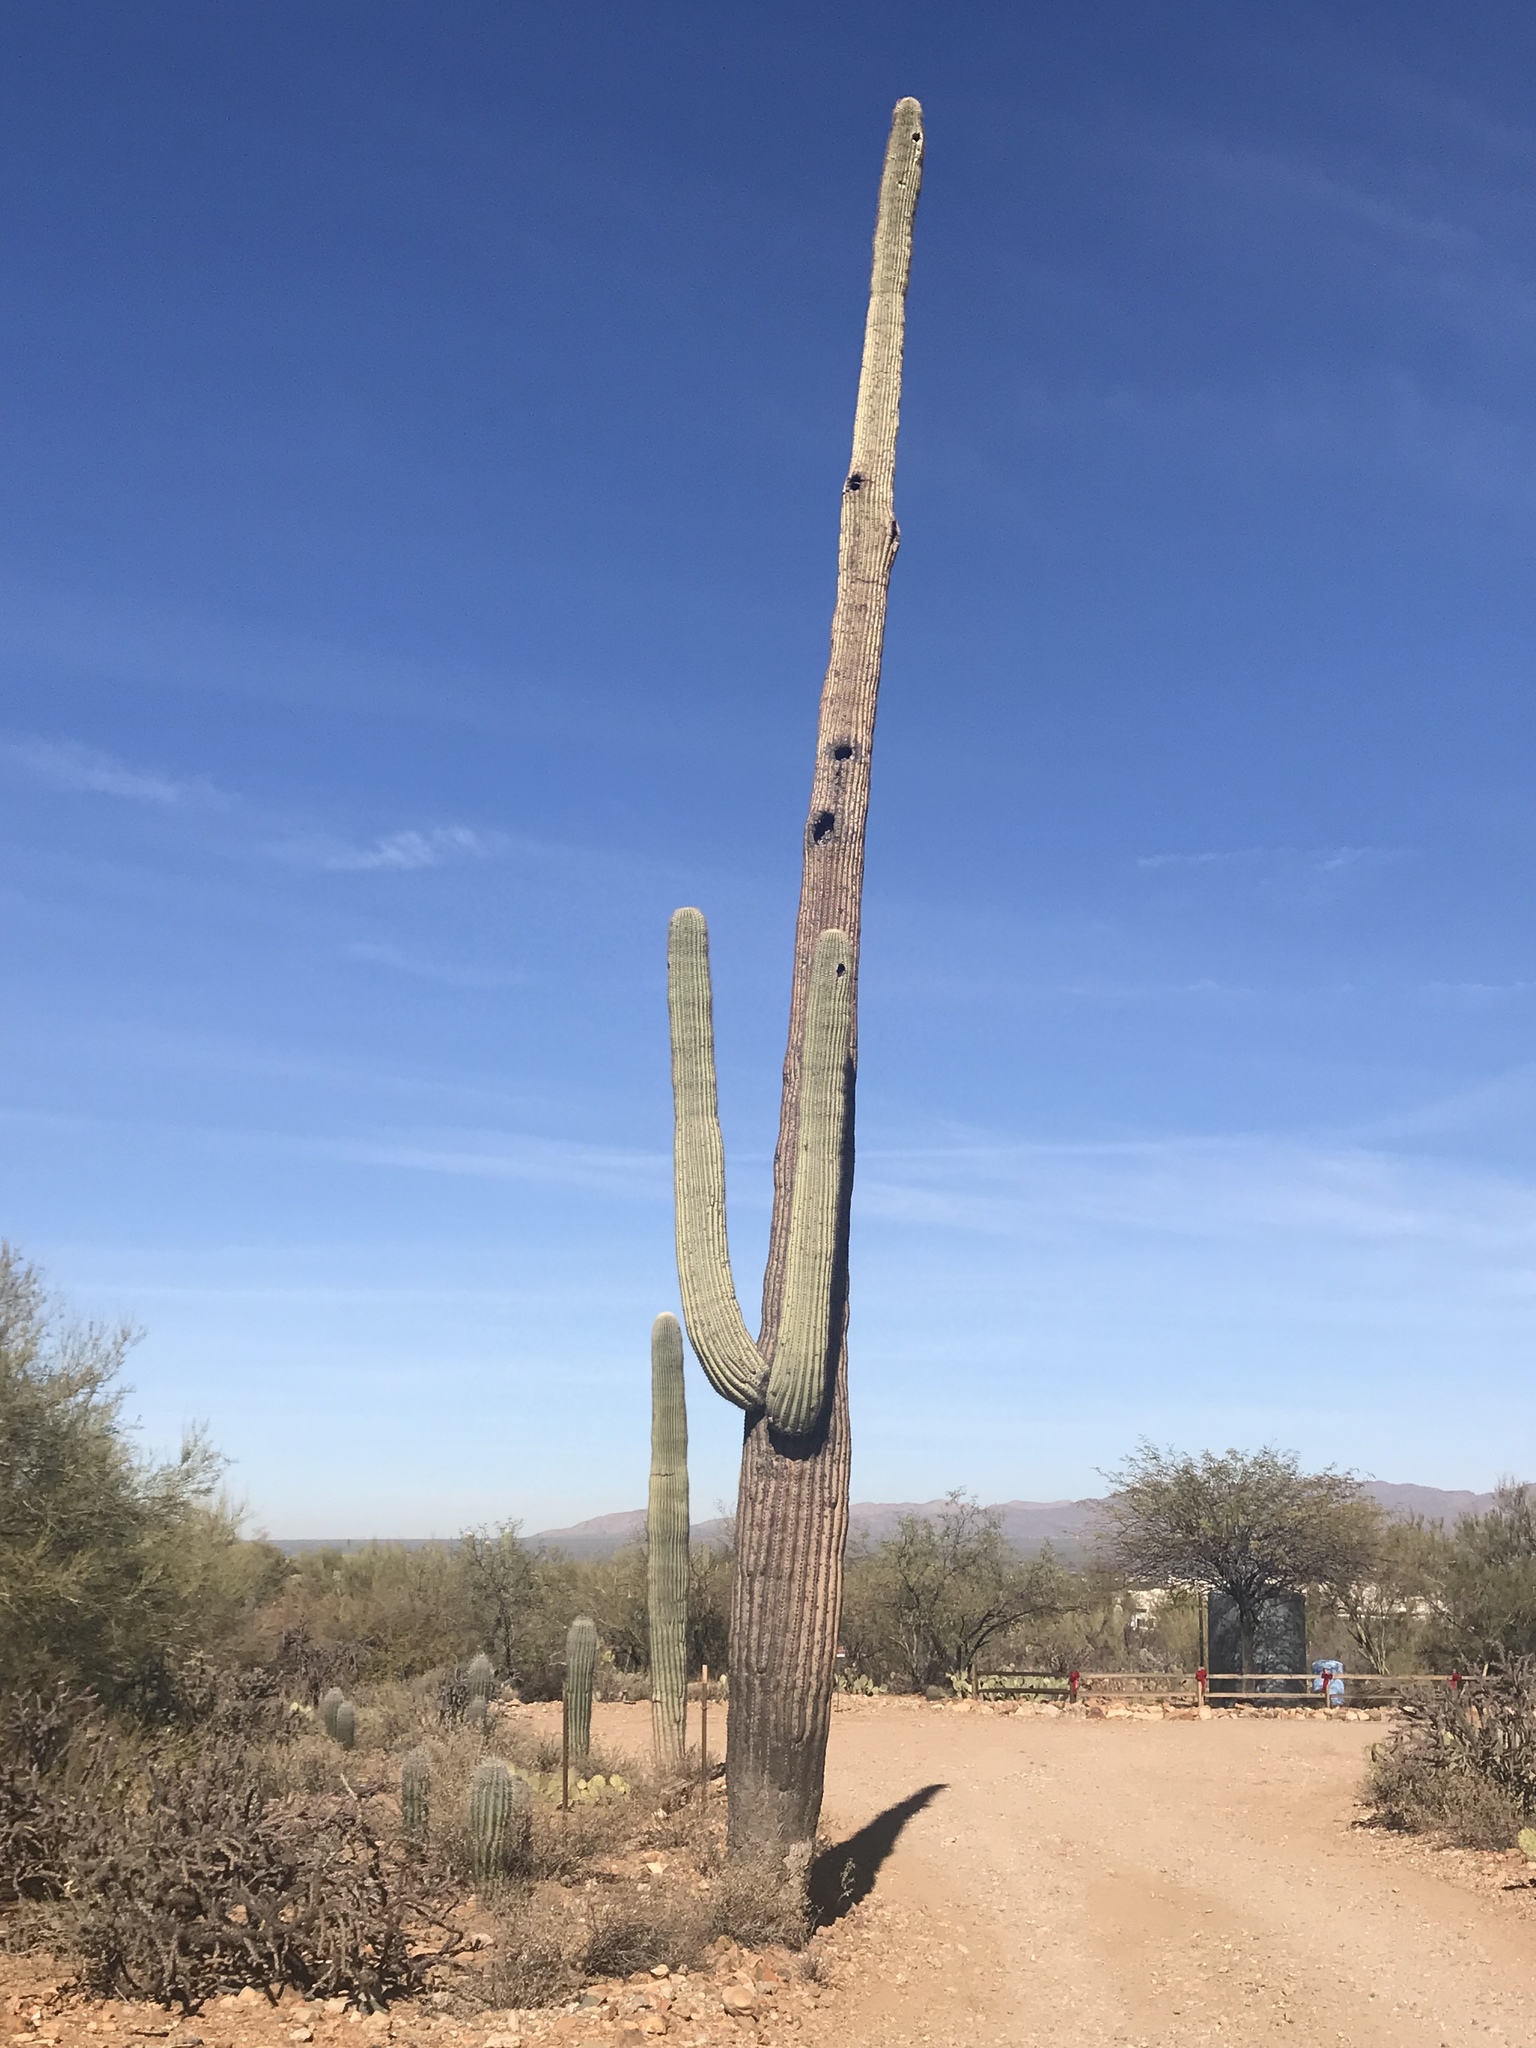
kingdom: Plantae
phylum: Tracheophyta
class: Magnoliopsida
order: Caryophyllales
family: Cactaceae
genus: Carnegiea
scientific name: Carnegiea gigantea
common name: Saguaro
